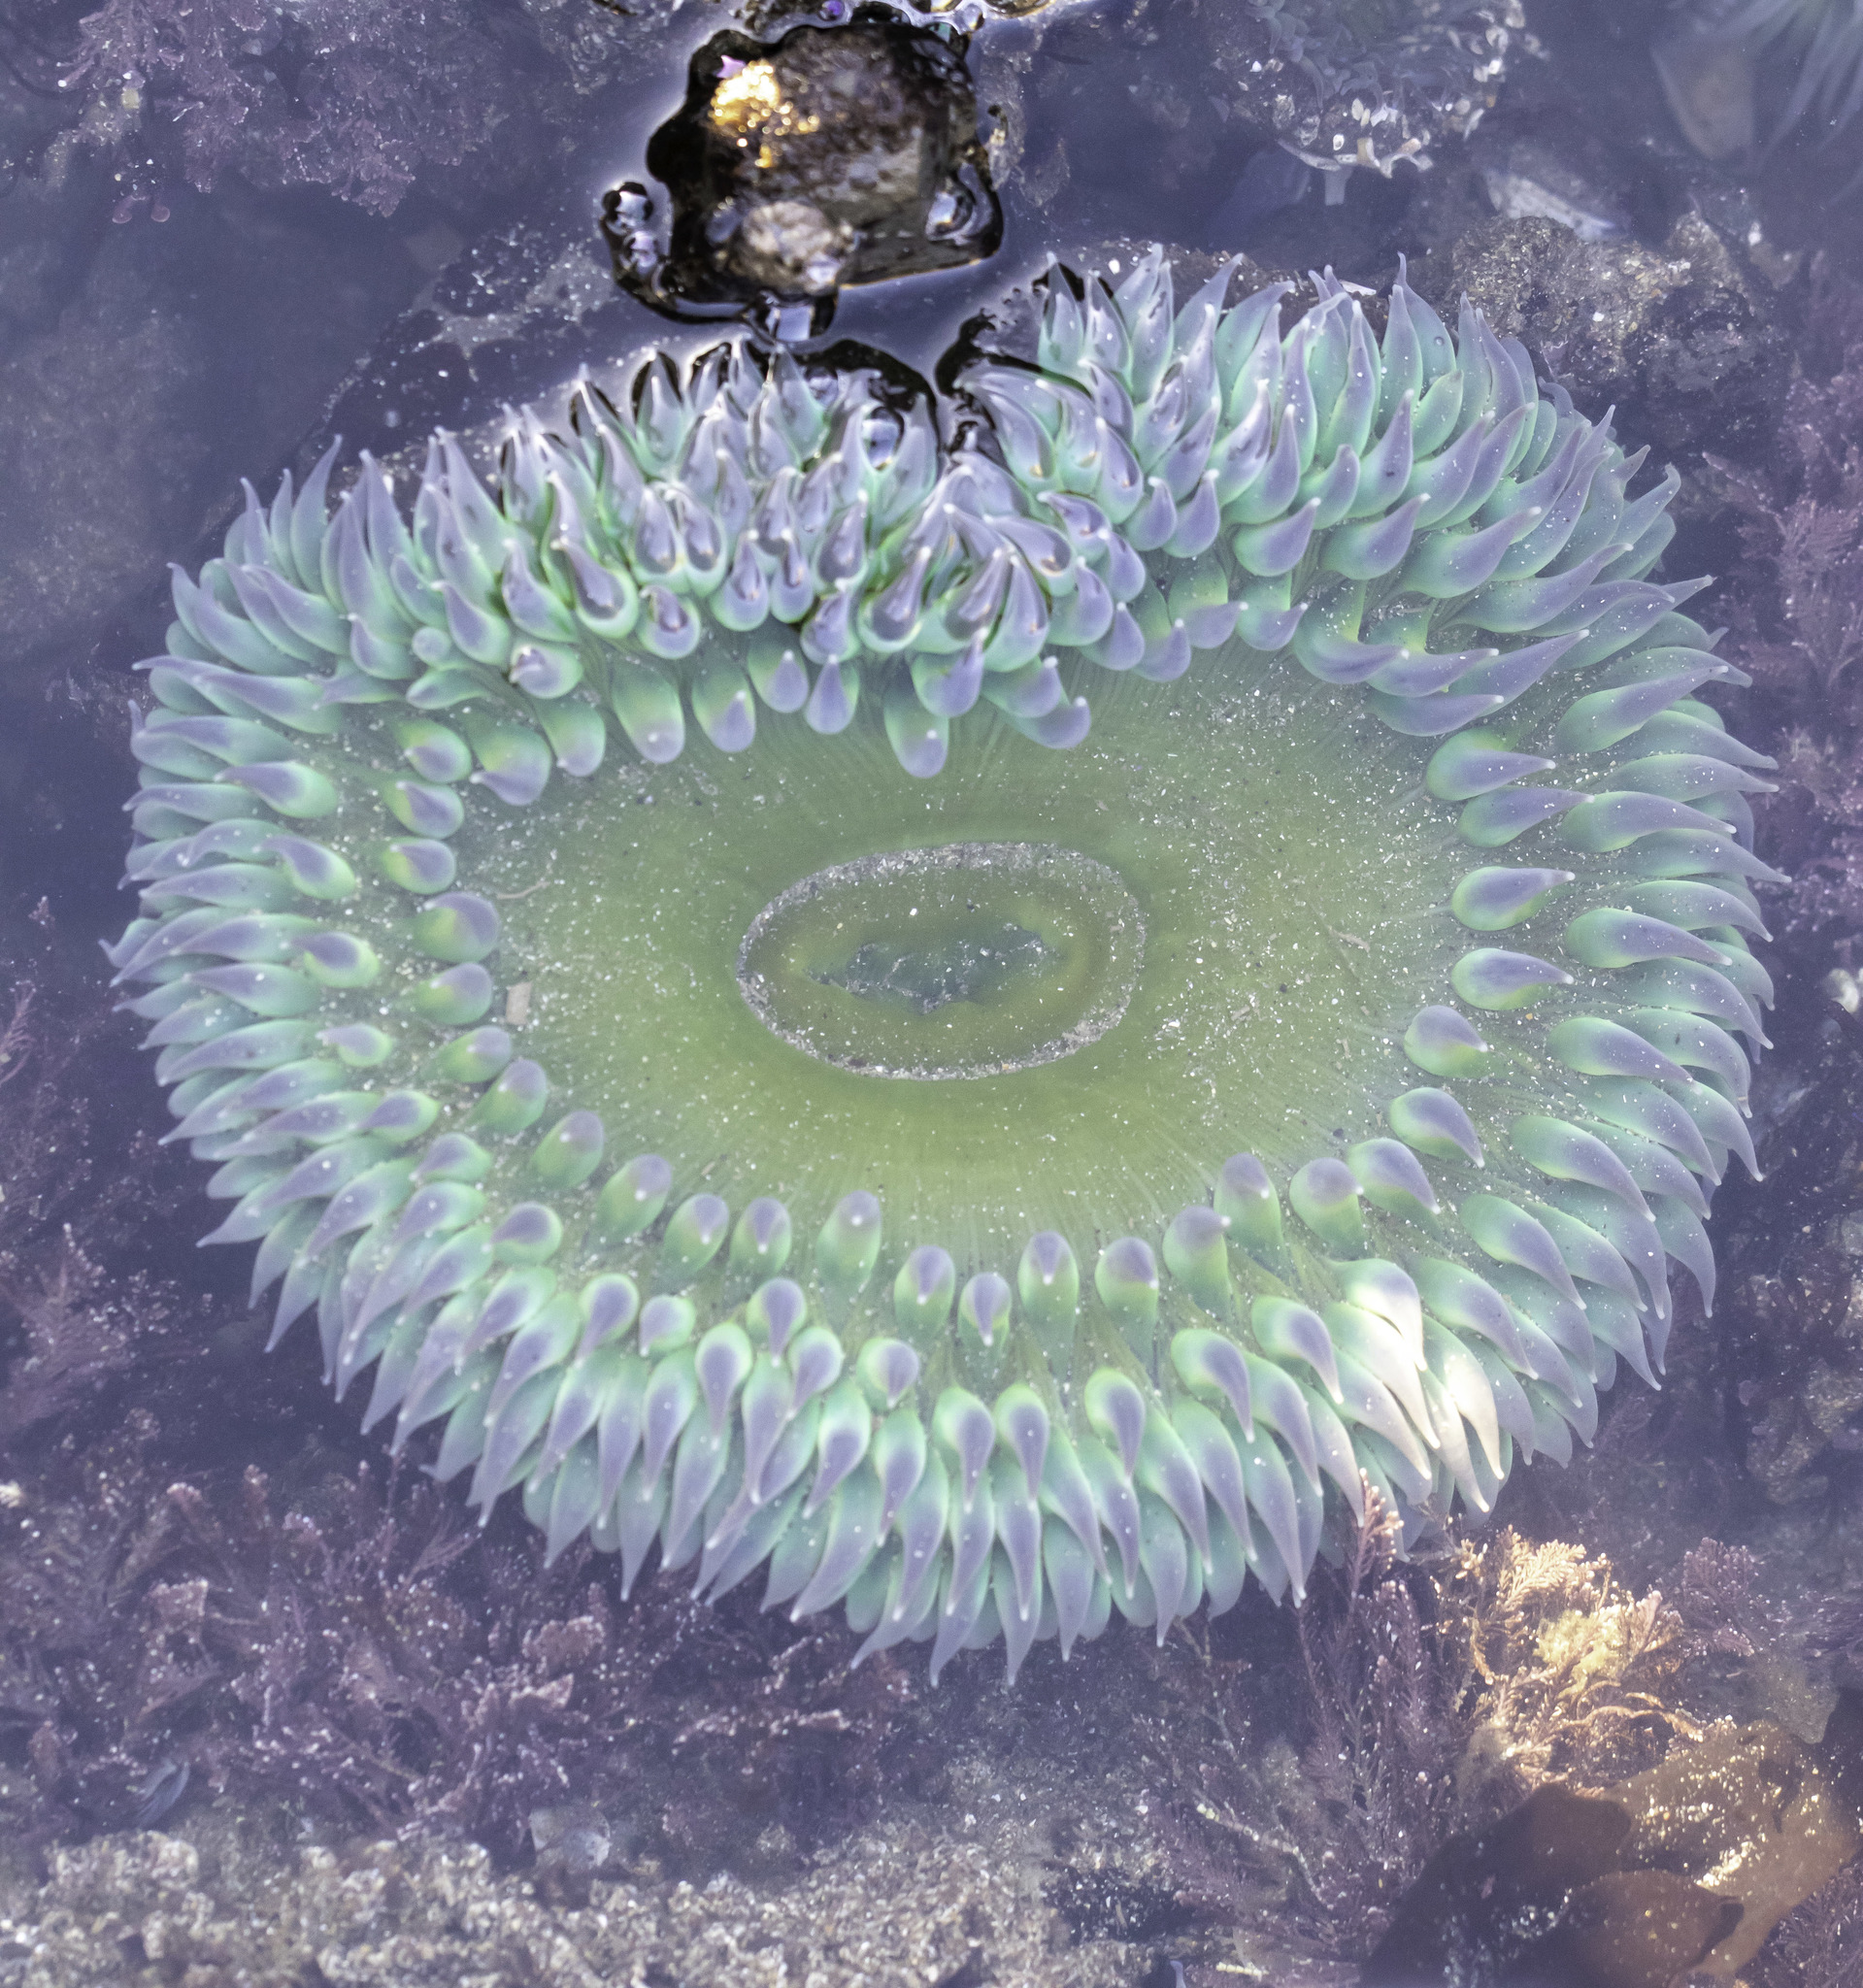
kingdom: Animalia
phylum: Cnidaria
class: Anthozoa
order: Actiniaria
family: Actiniidae
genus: Anthopleura
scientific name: Anthopleura xanthogrammica
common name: Giant green anemone
